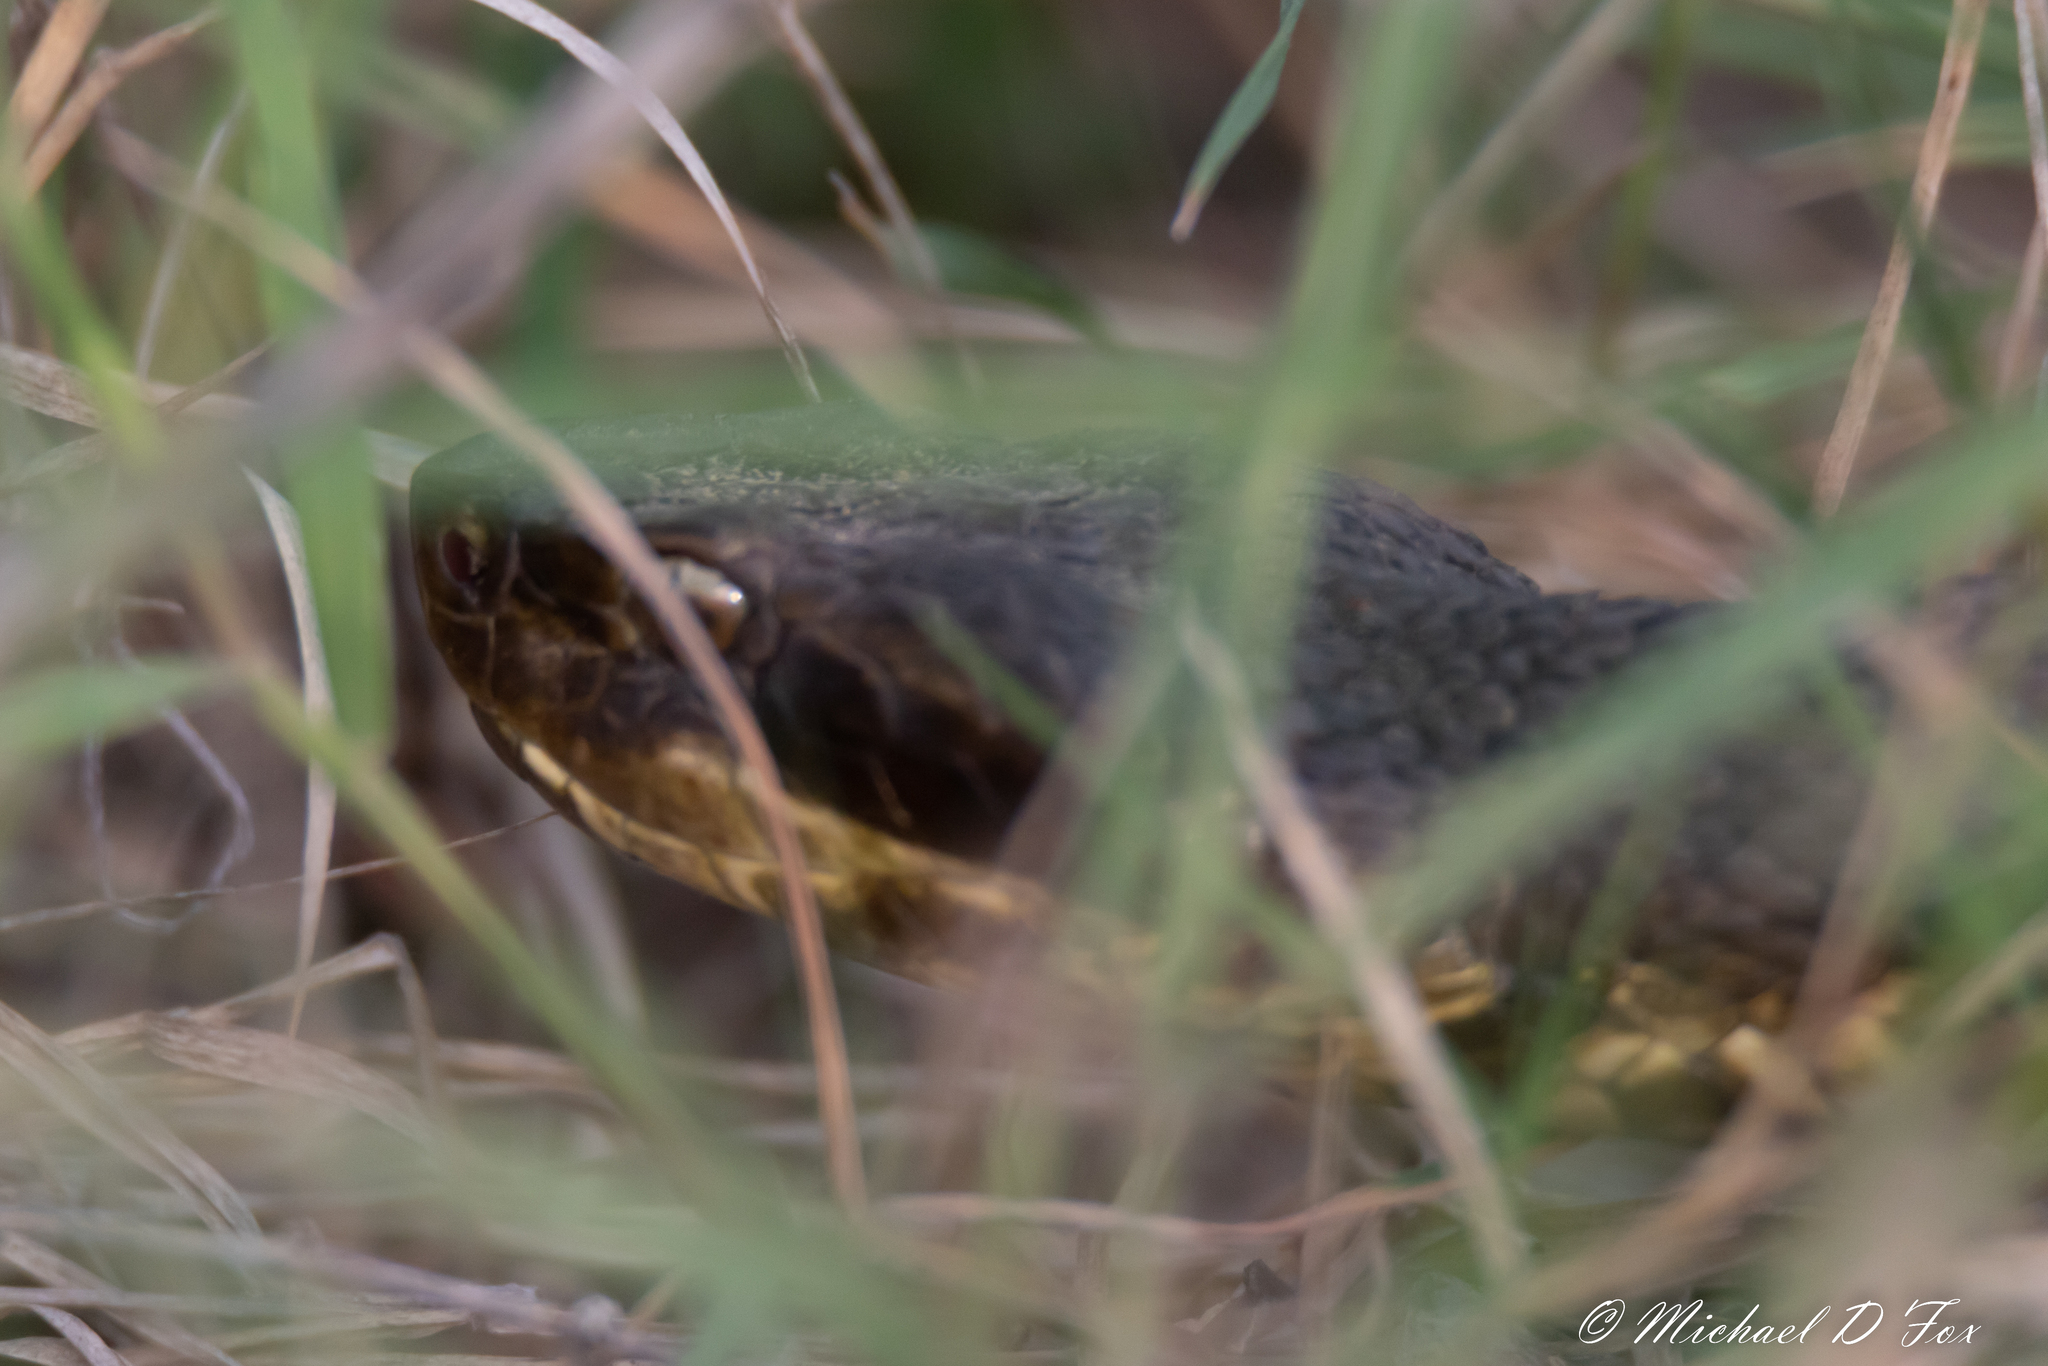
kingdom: Animalia
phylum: Chordata
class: Squamata
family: Viperidae
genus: Agkistrodon
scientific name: Agkistrodon piscivorus
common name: Cottonmouth
